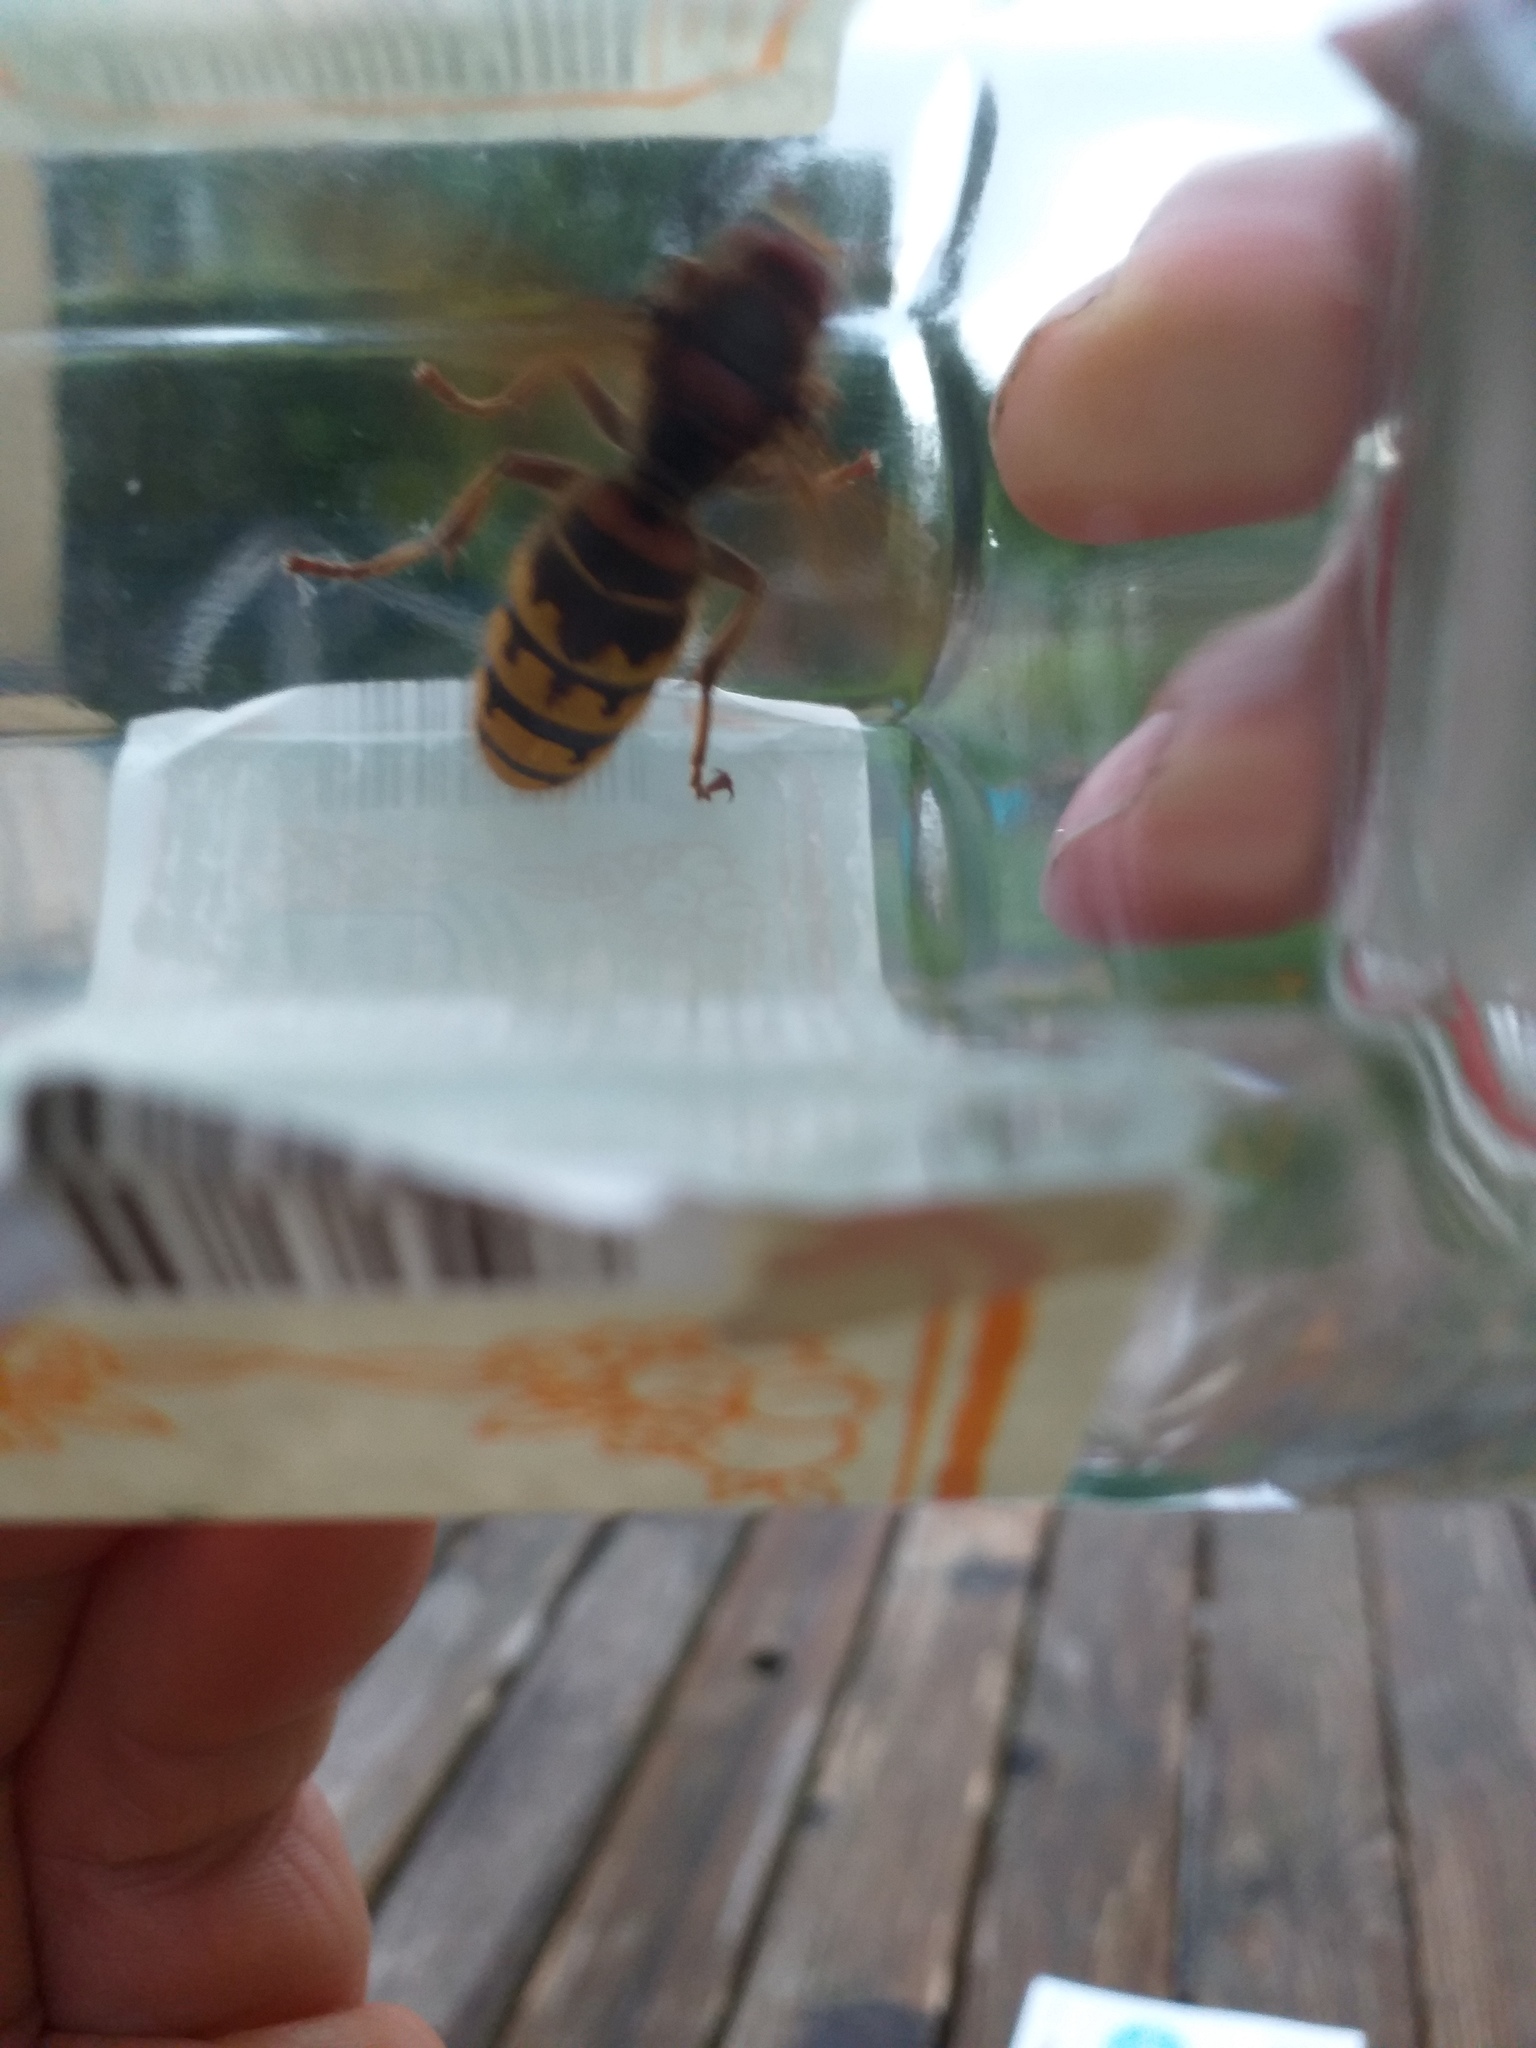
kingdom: Animalia
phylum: Arthropoda
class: Insecta
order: Hymenoptera
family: Vespidae
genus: Vespa
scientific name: Vespa crabro
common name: Hornet
